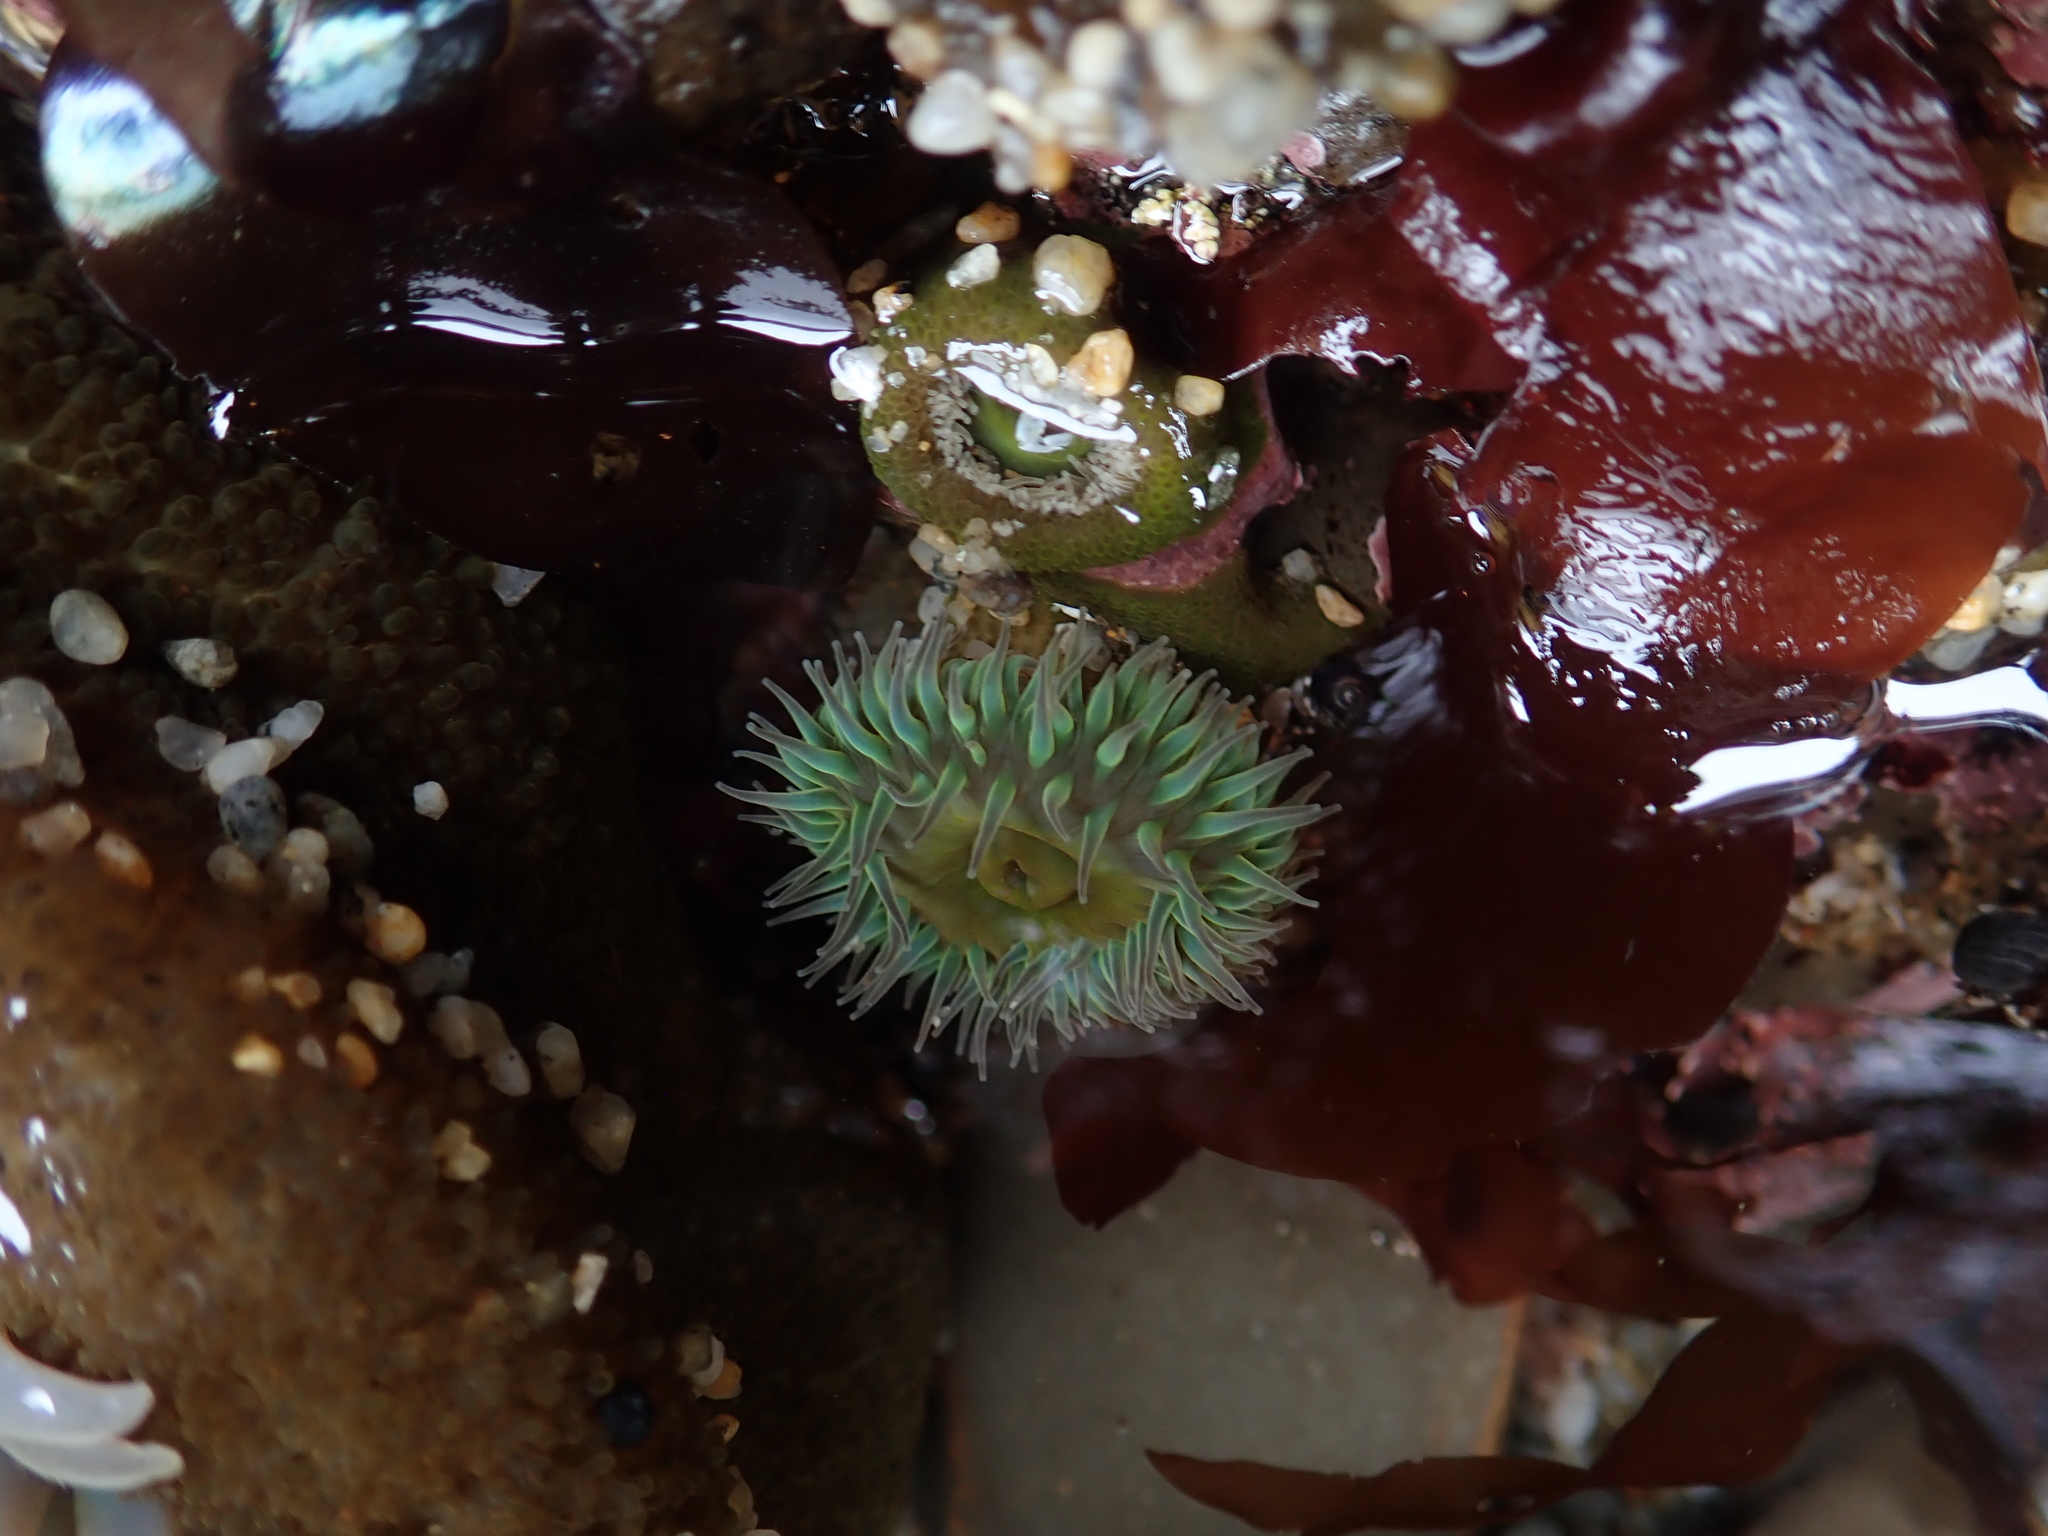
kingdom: Animalia
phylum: Cnidaria
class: Anthozoa
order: Actiniaria
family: Actiniidae
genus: Anthopleura
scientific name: Anthopleura xanthogrammica
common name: Giant green anemone
